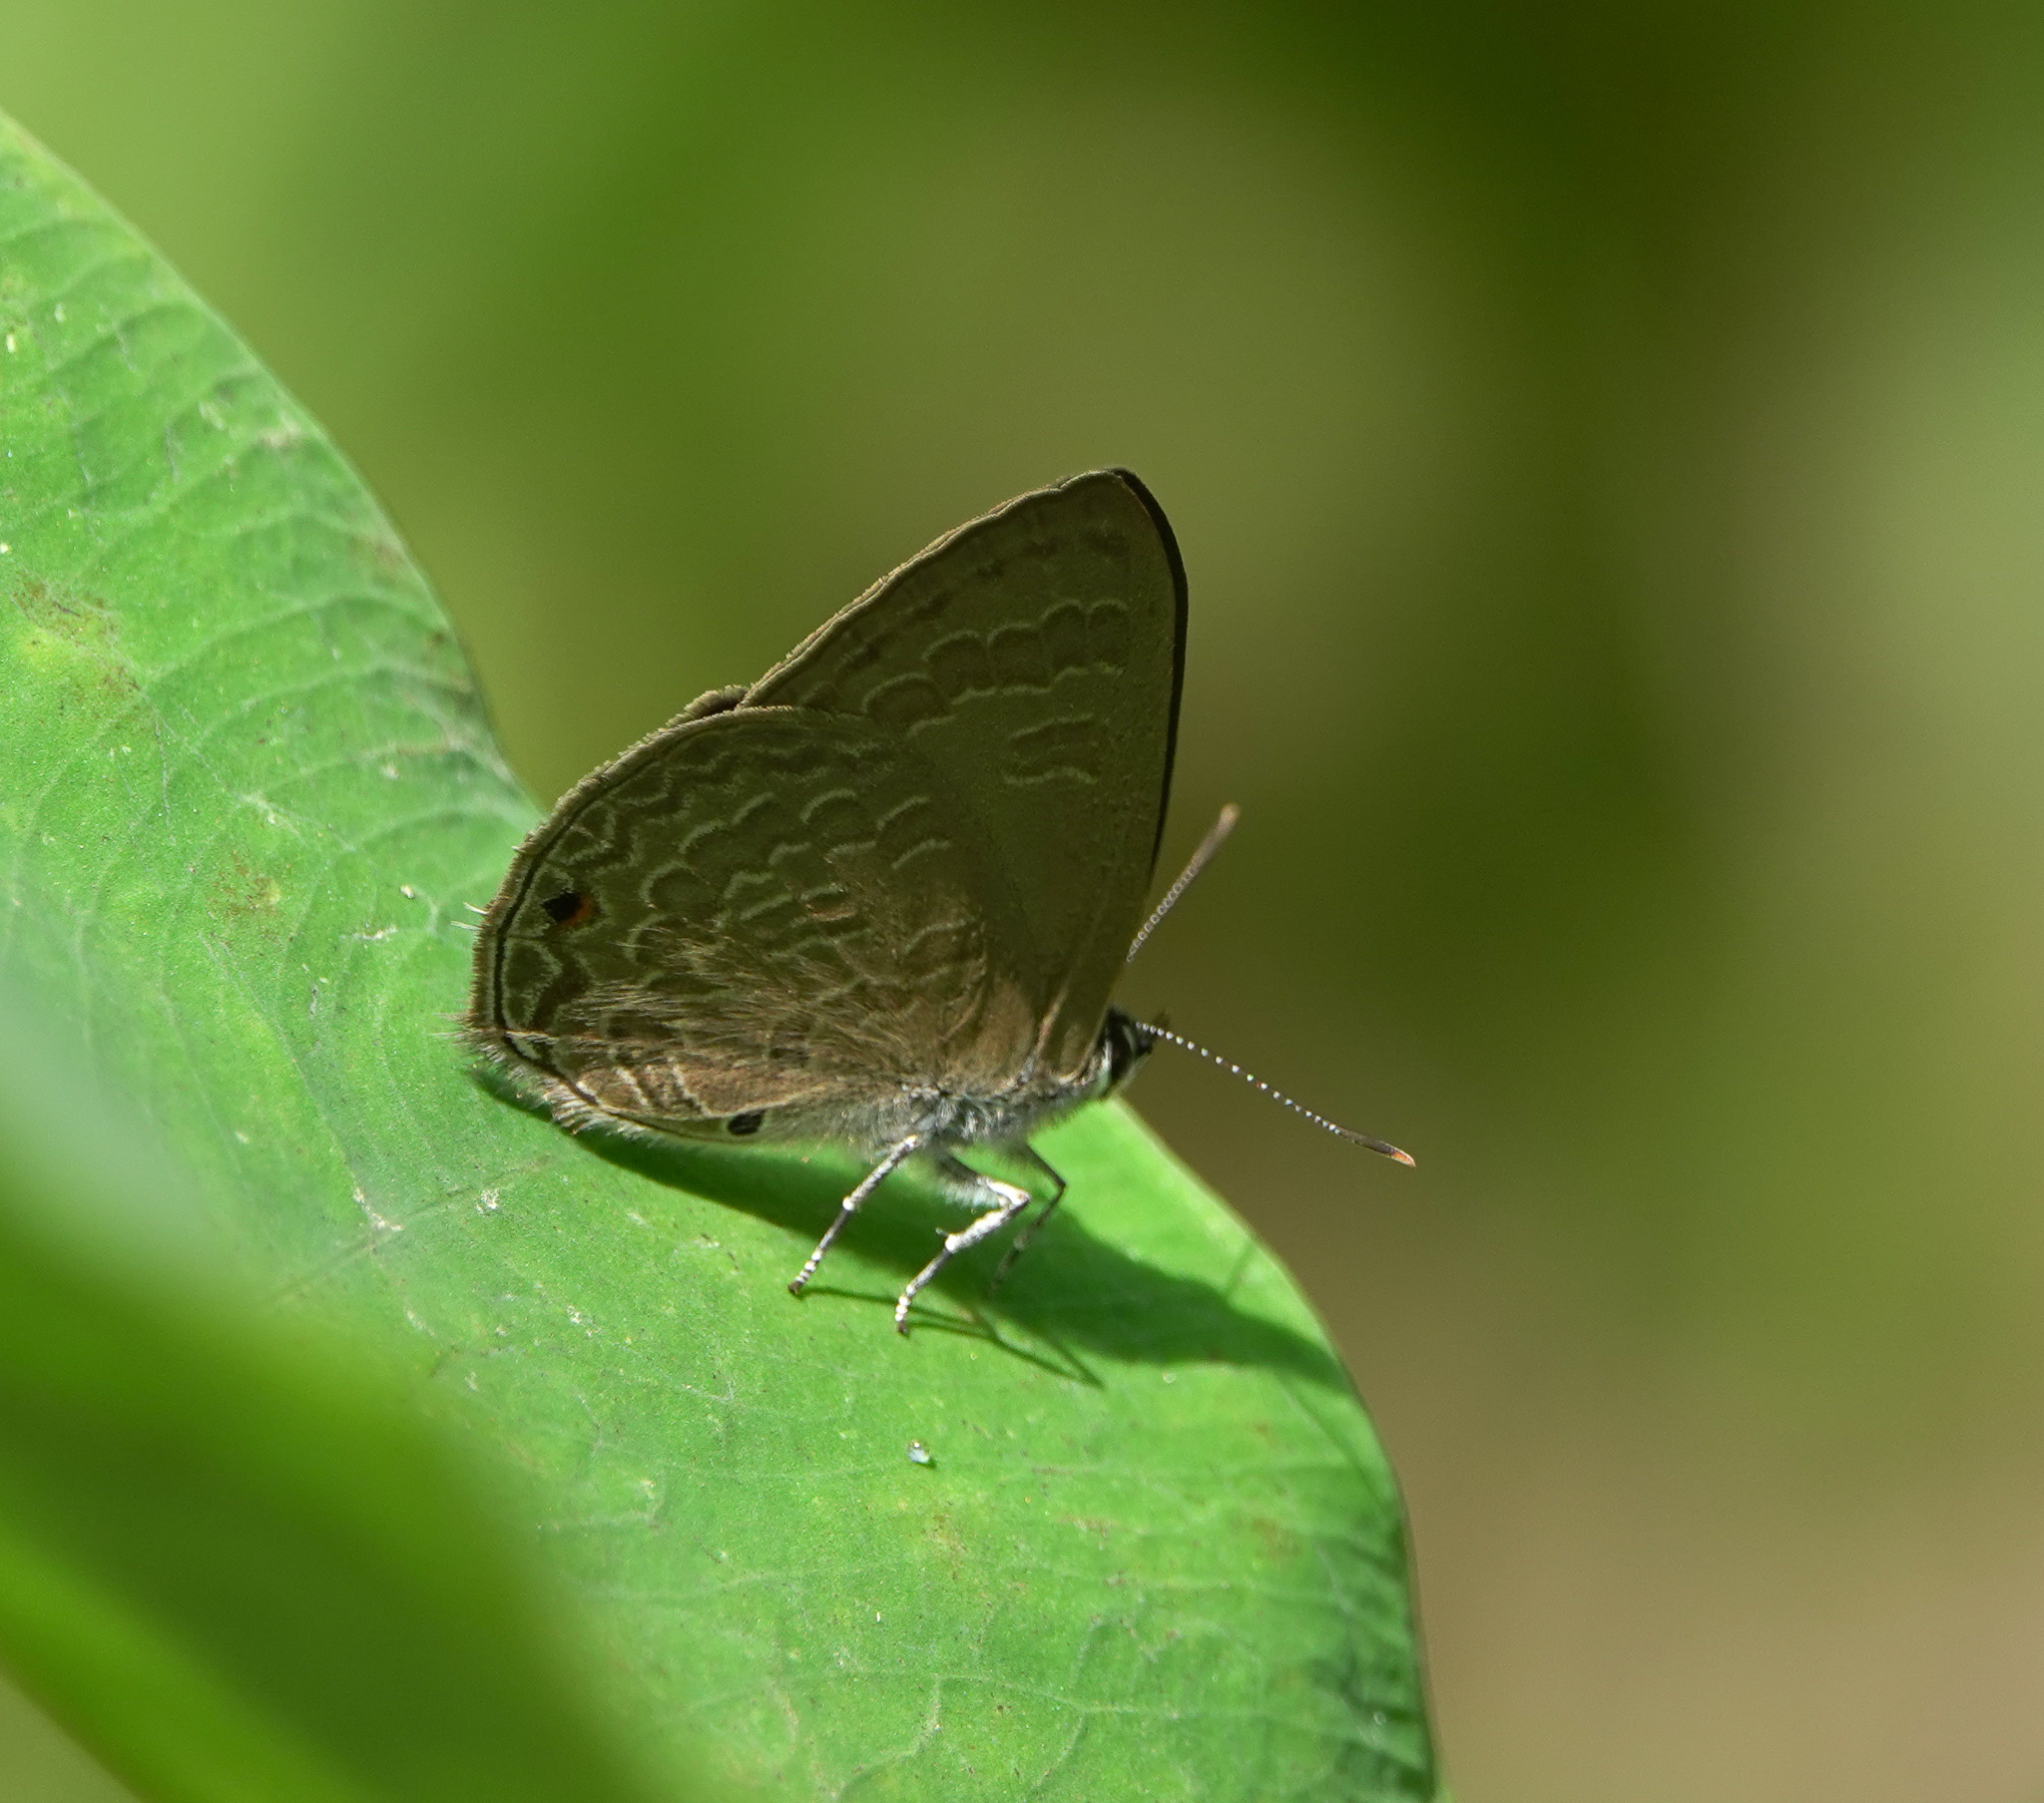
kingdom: Animalia
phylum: Arthropoda
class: Insecta
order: Lepidoptera
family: Lycaenidae
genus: Anthene
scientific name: Anthene emolus
